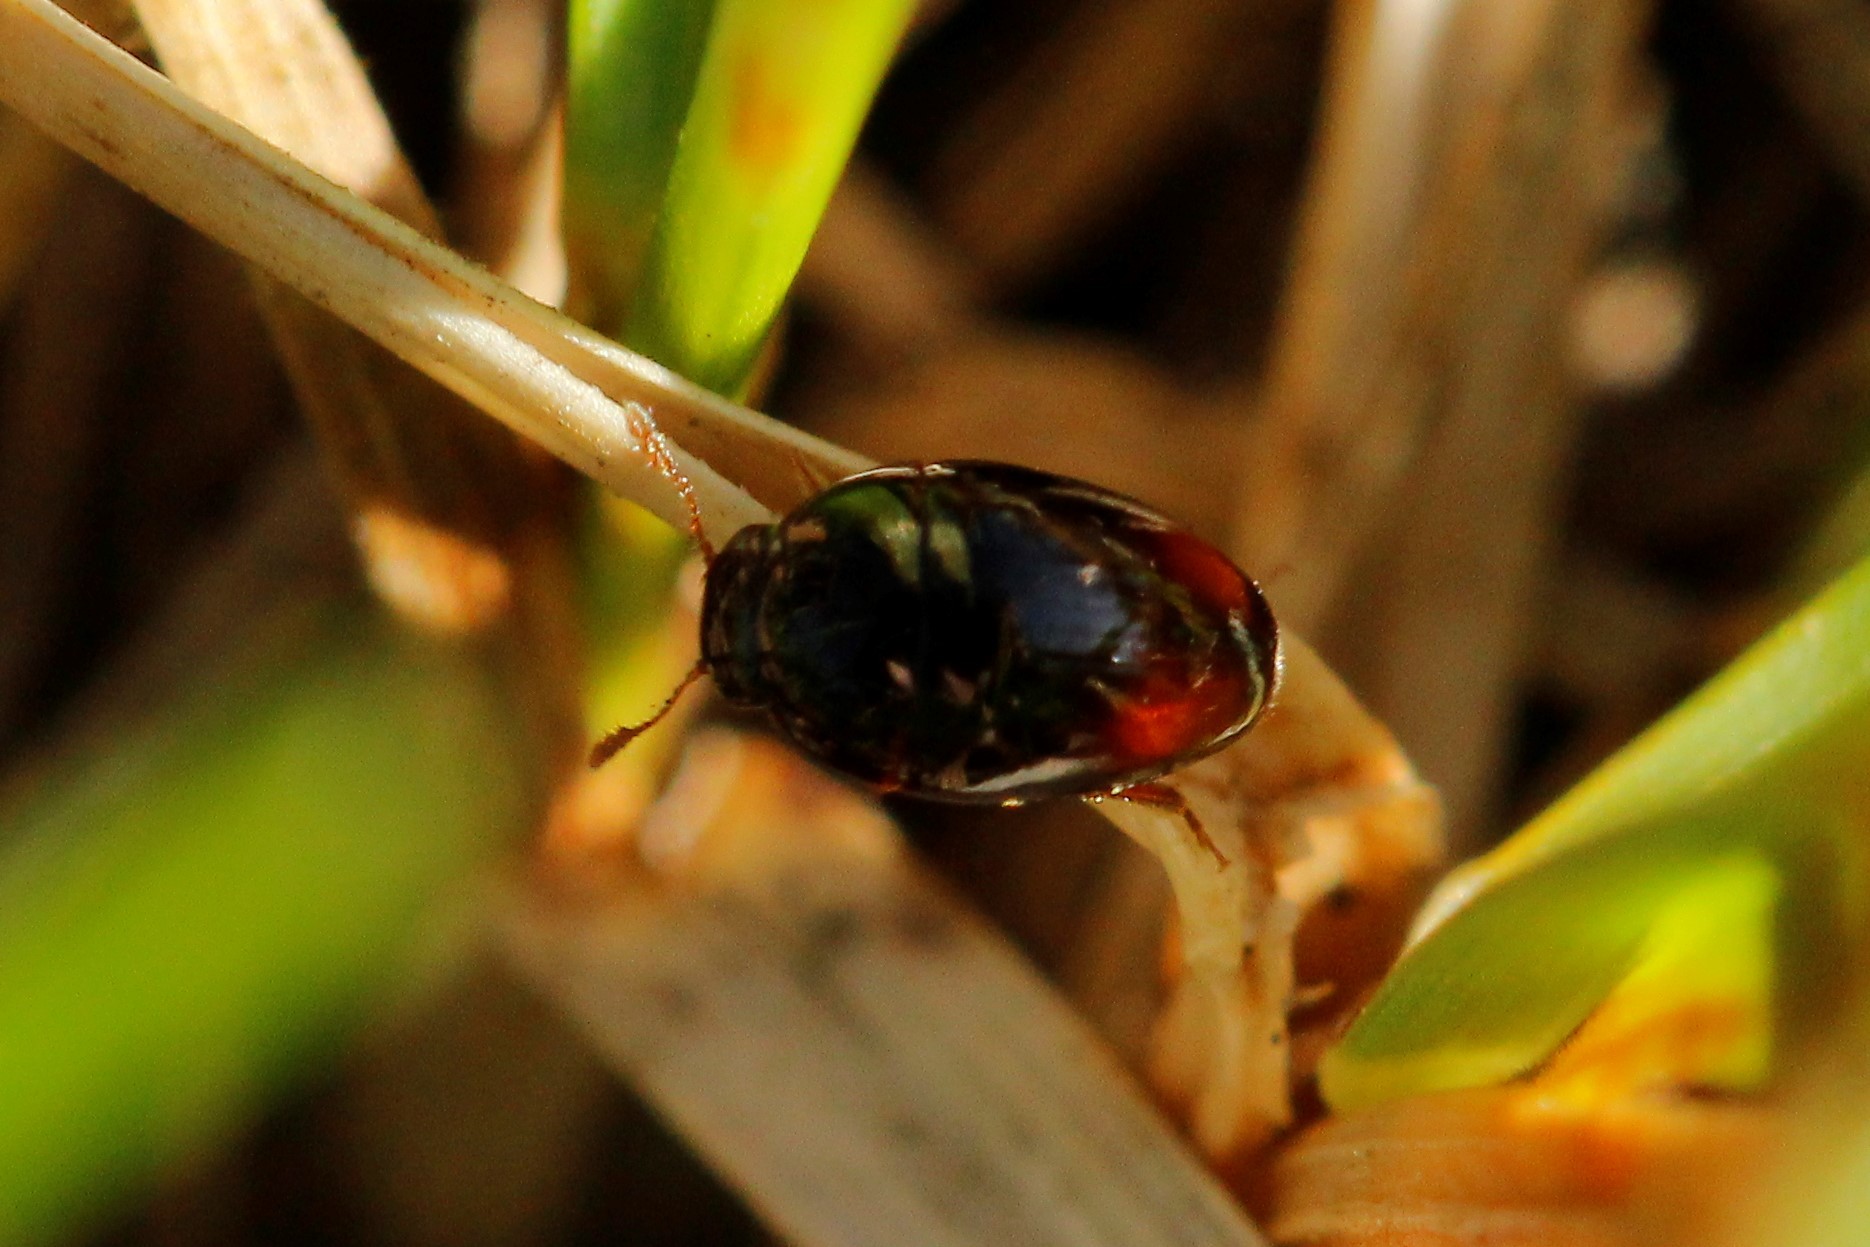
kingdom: Animalia
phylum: Arthropoda
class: Insecta
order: Coleoptera
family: Phalacridae
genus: Olibrus
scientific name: Olibrus bicolor
